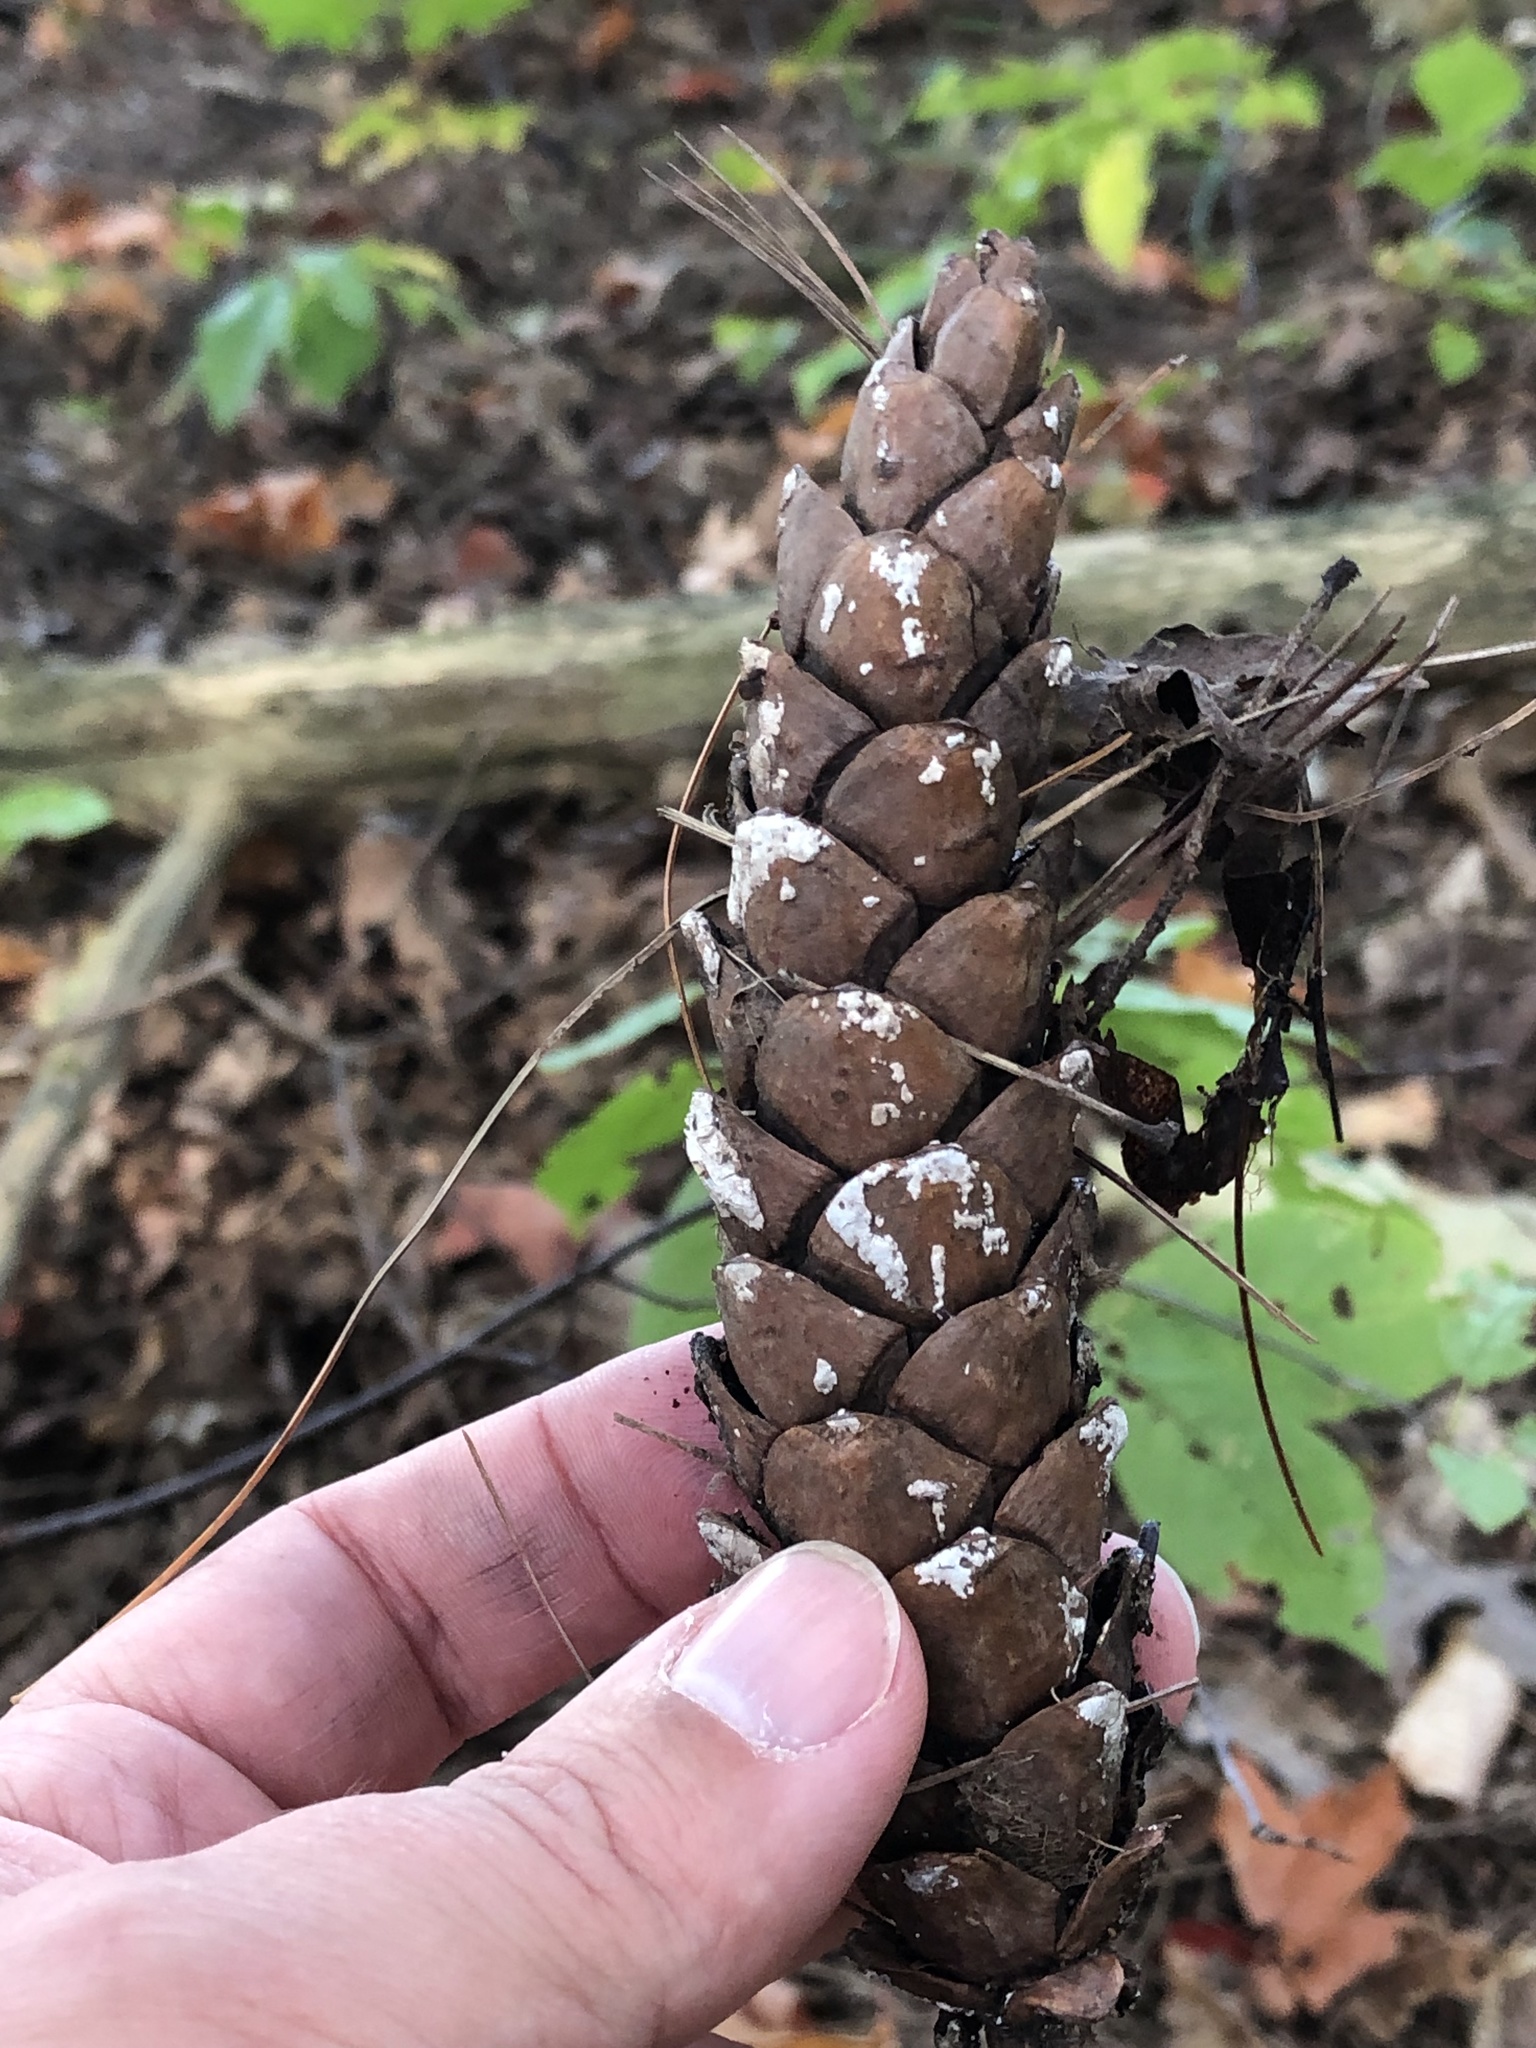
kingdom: Plantae
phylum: Tracheophyta
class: Pinopsida
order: Pinales
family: Pinaceae
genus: Pinus
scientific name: Pinus strobus
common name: Weymouth pine
